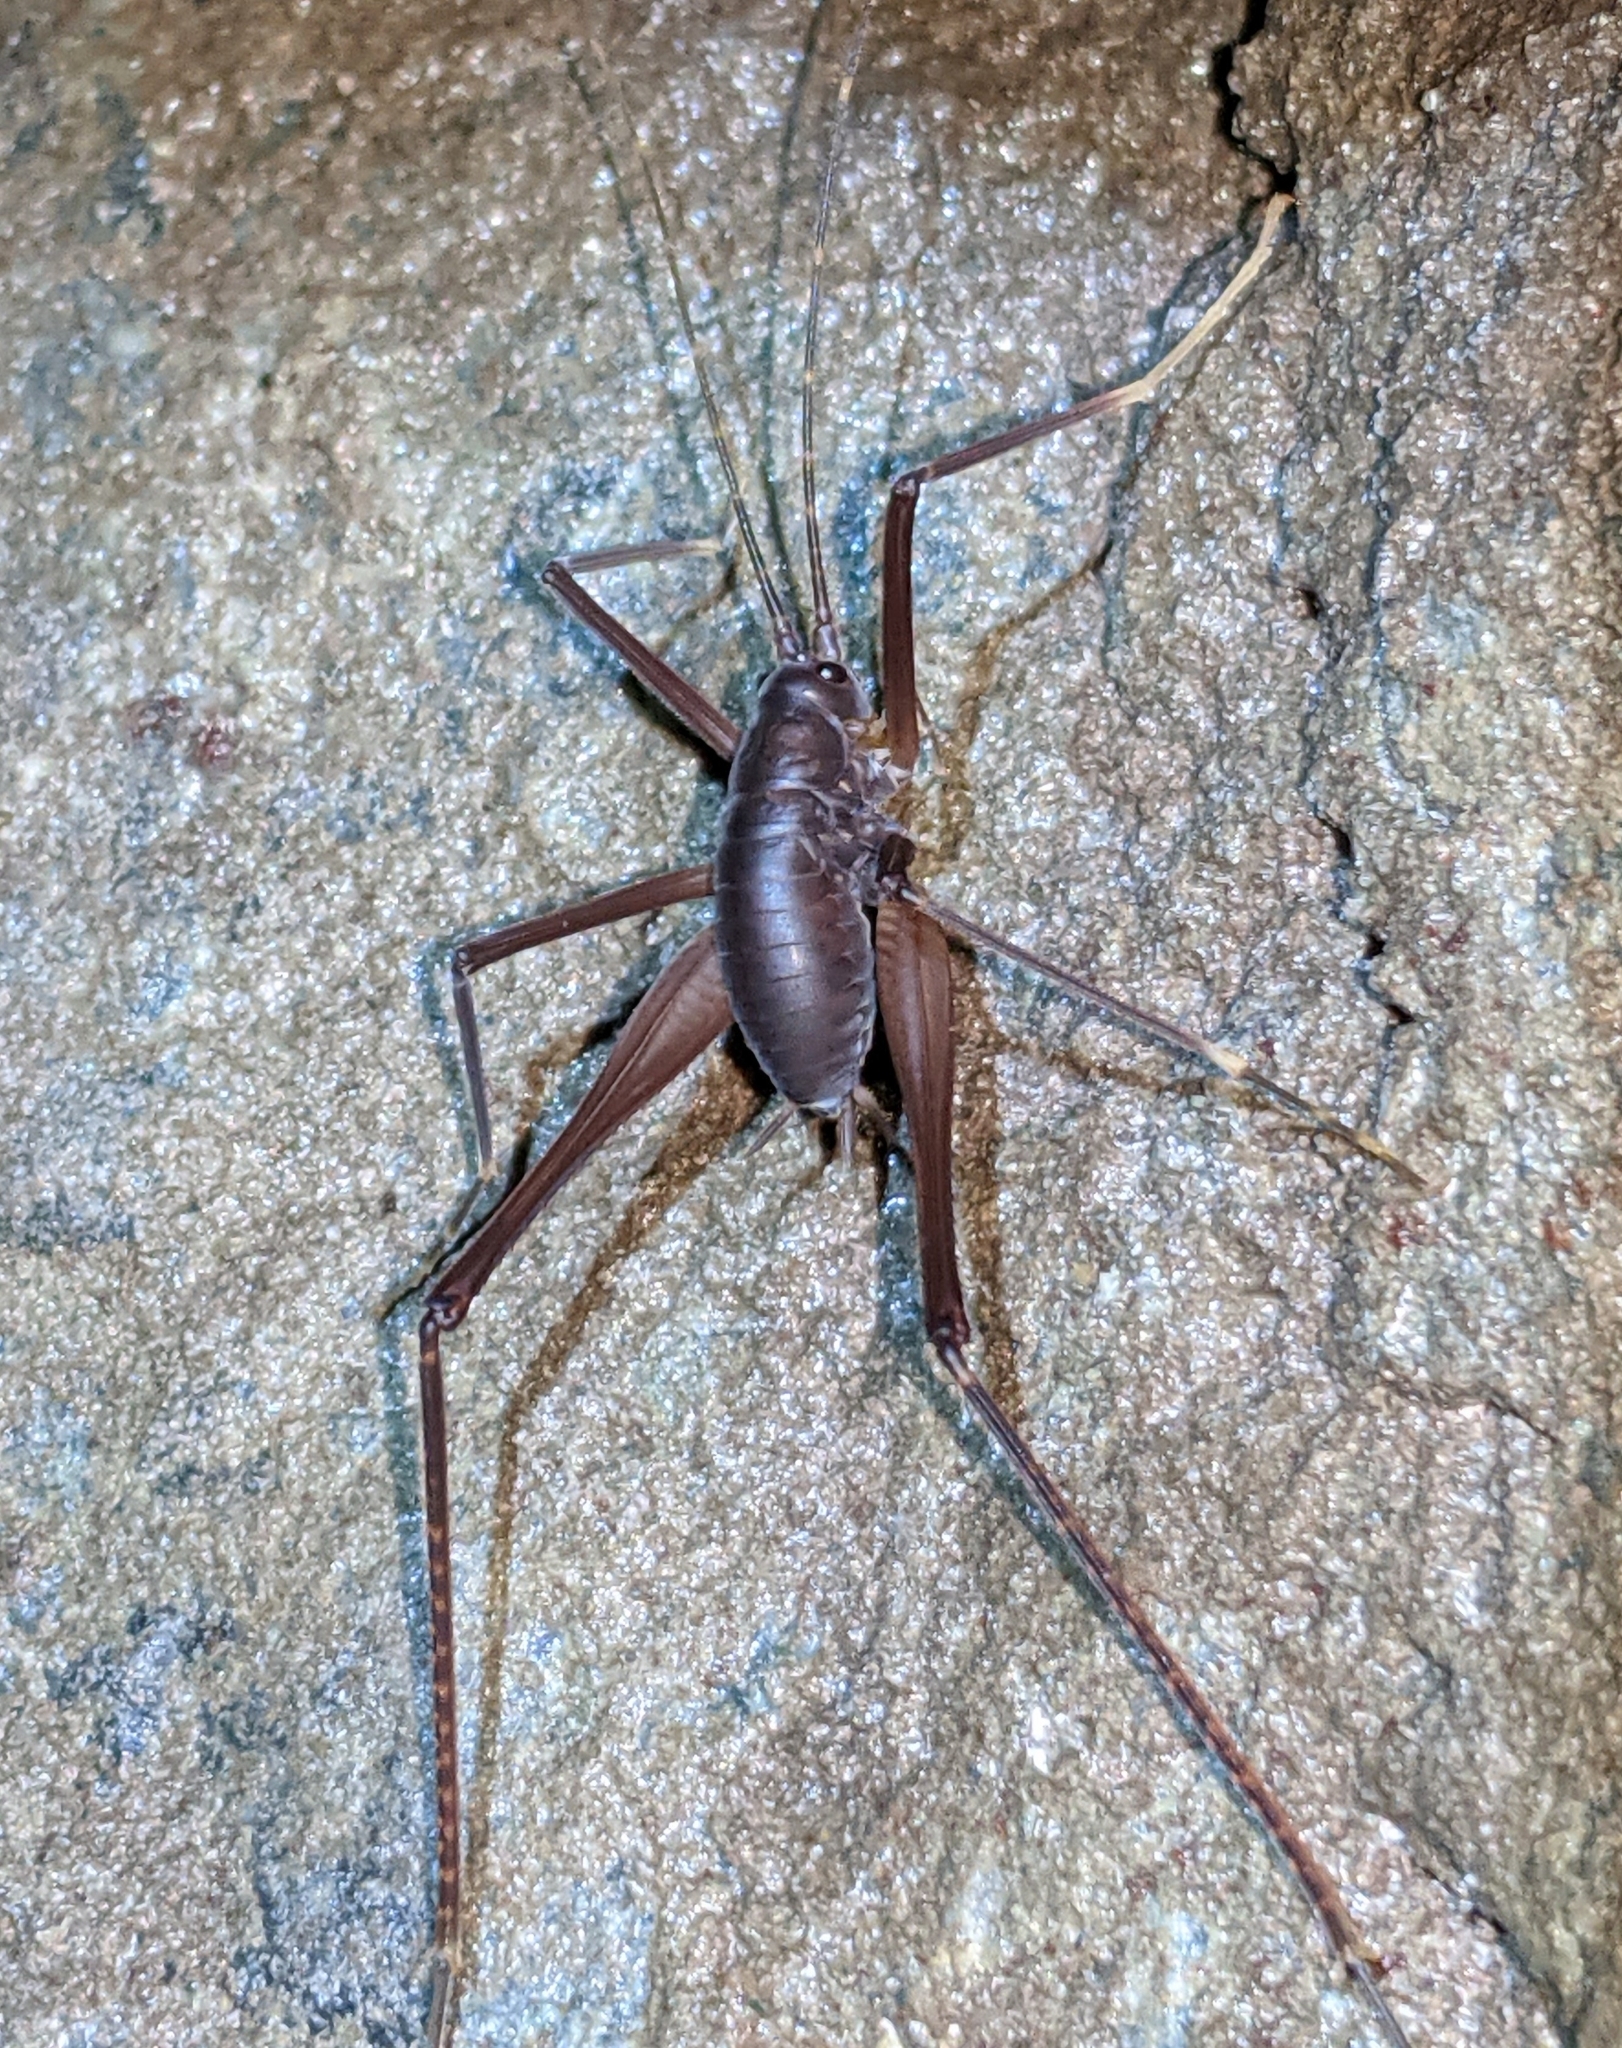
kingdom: Animalia
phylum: Arthropoda
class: Insecta
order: Orthoptera
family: Rhaphidophoridae
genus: Tropidischia
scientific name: Tropidischia xanthostoma
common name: Square-legged camel cricket
